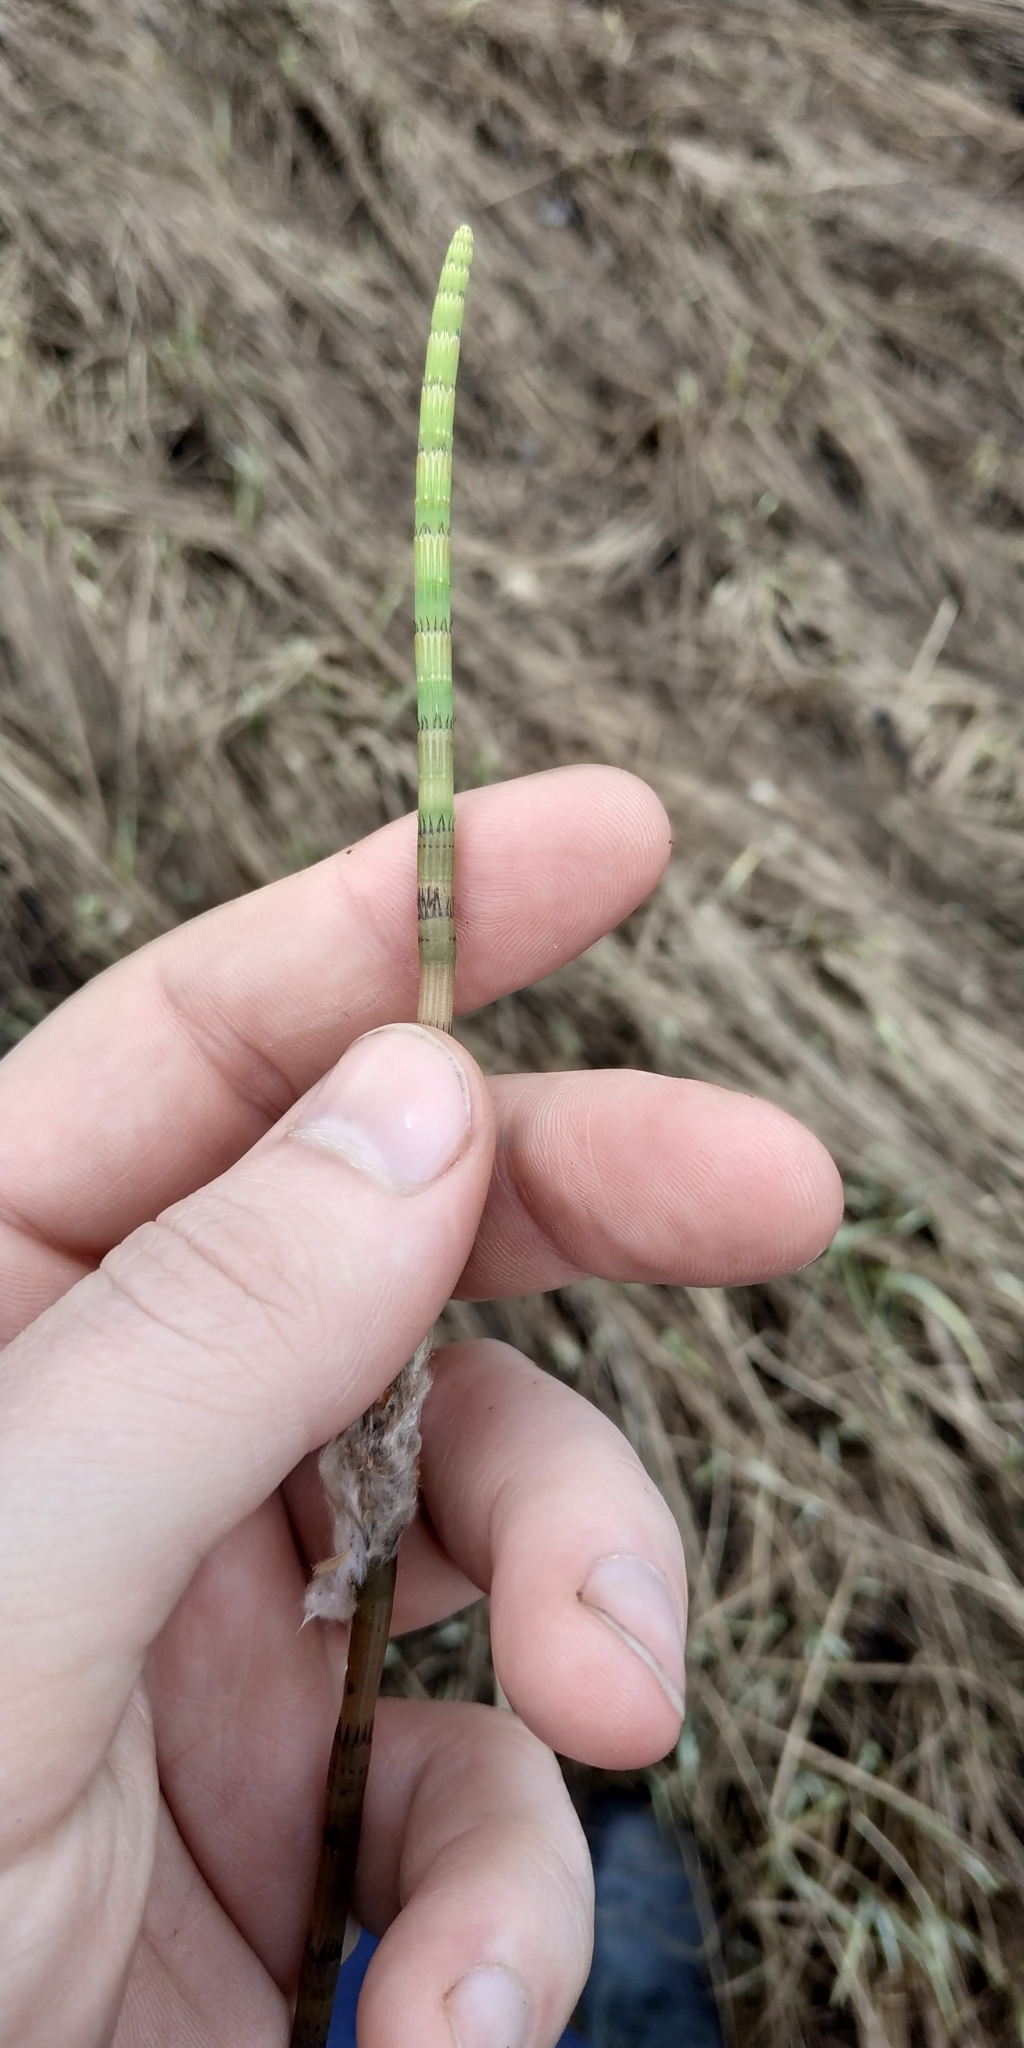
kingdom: Plantae
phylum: Tracheophyta
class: Polypodiopsida
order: Equisetales
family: Equisetaceae
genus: Equisetum
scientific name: Equisetum fluviatile
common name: Water horsetail
